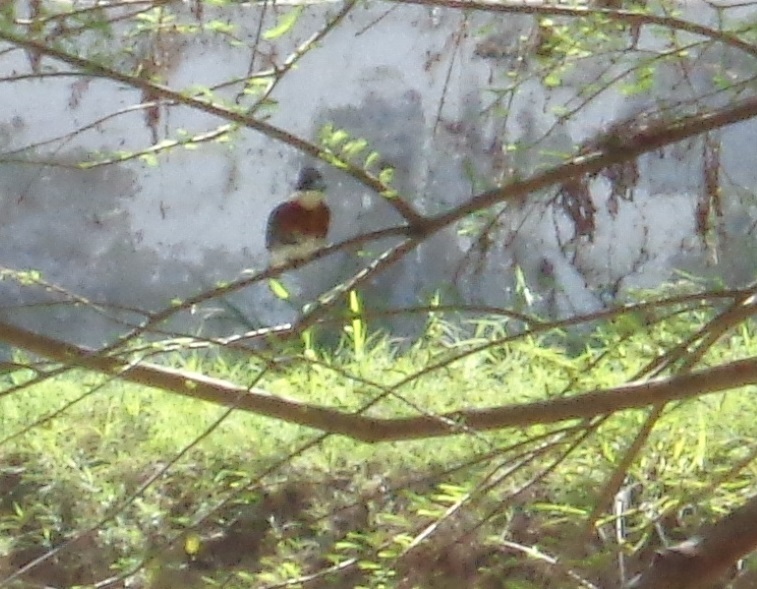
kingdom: Animalia
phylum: Chordata
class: Aves
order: Coraciiformes
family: Alcedinidae
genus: Chloroceryle
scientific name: Chloroceryle americana
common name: Green kingfisher
